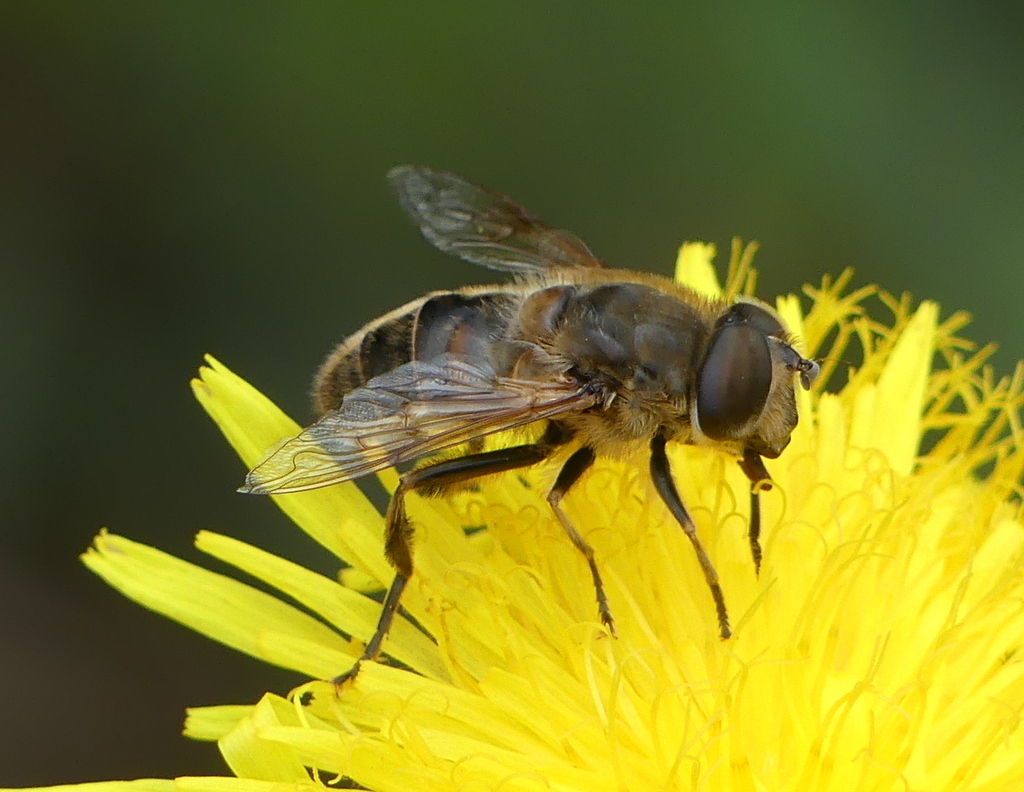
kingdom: Animalia
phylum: Arthropoda
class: Insecta
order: Diptera
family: Syrphidae
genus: Eristalis
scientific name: Eristalis tenax
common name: Drone fly
